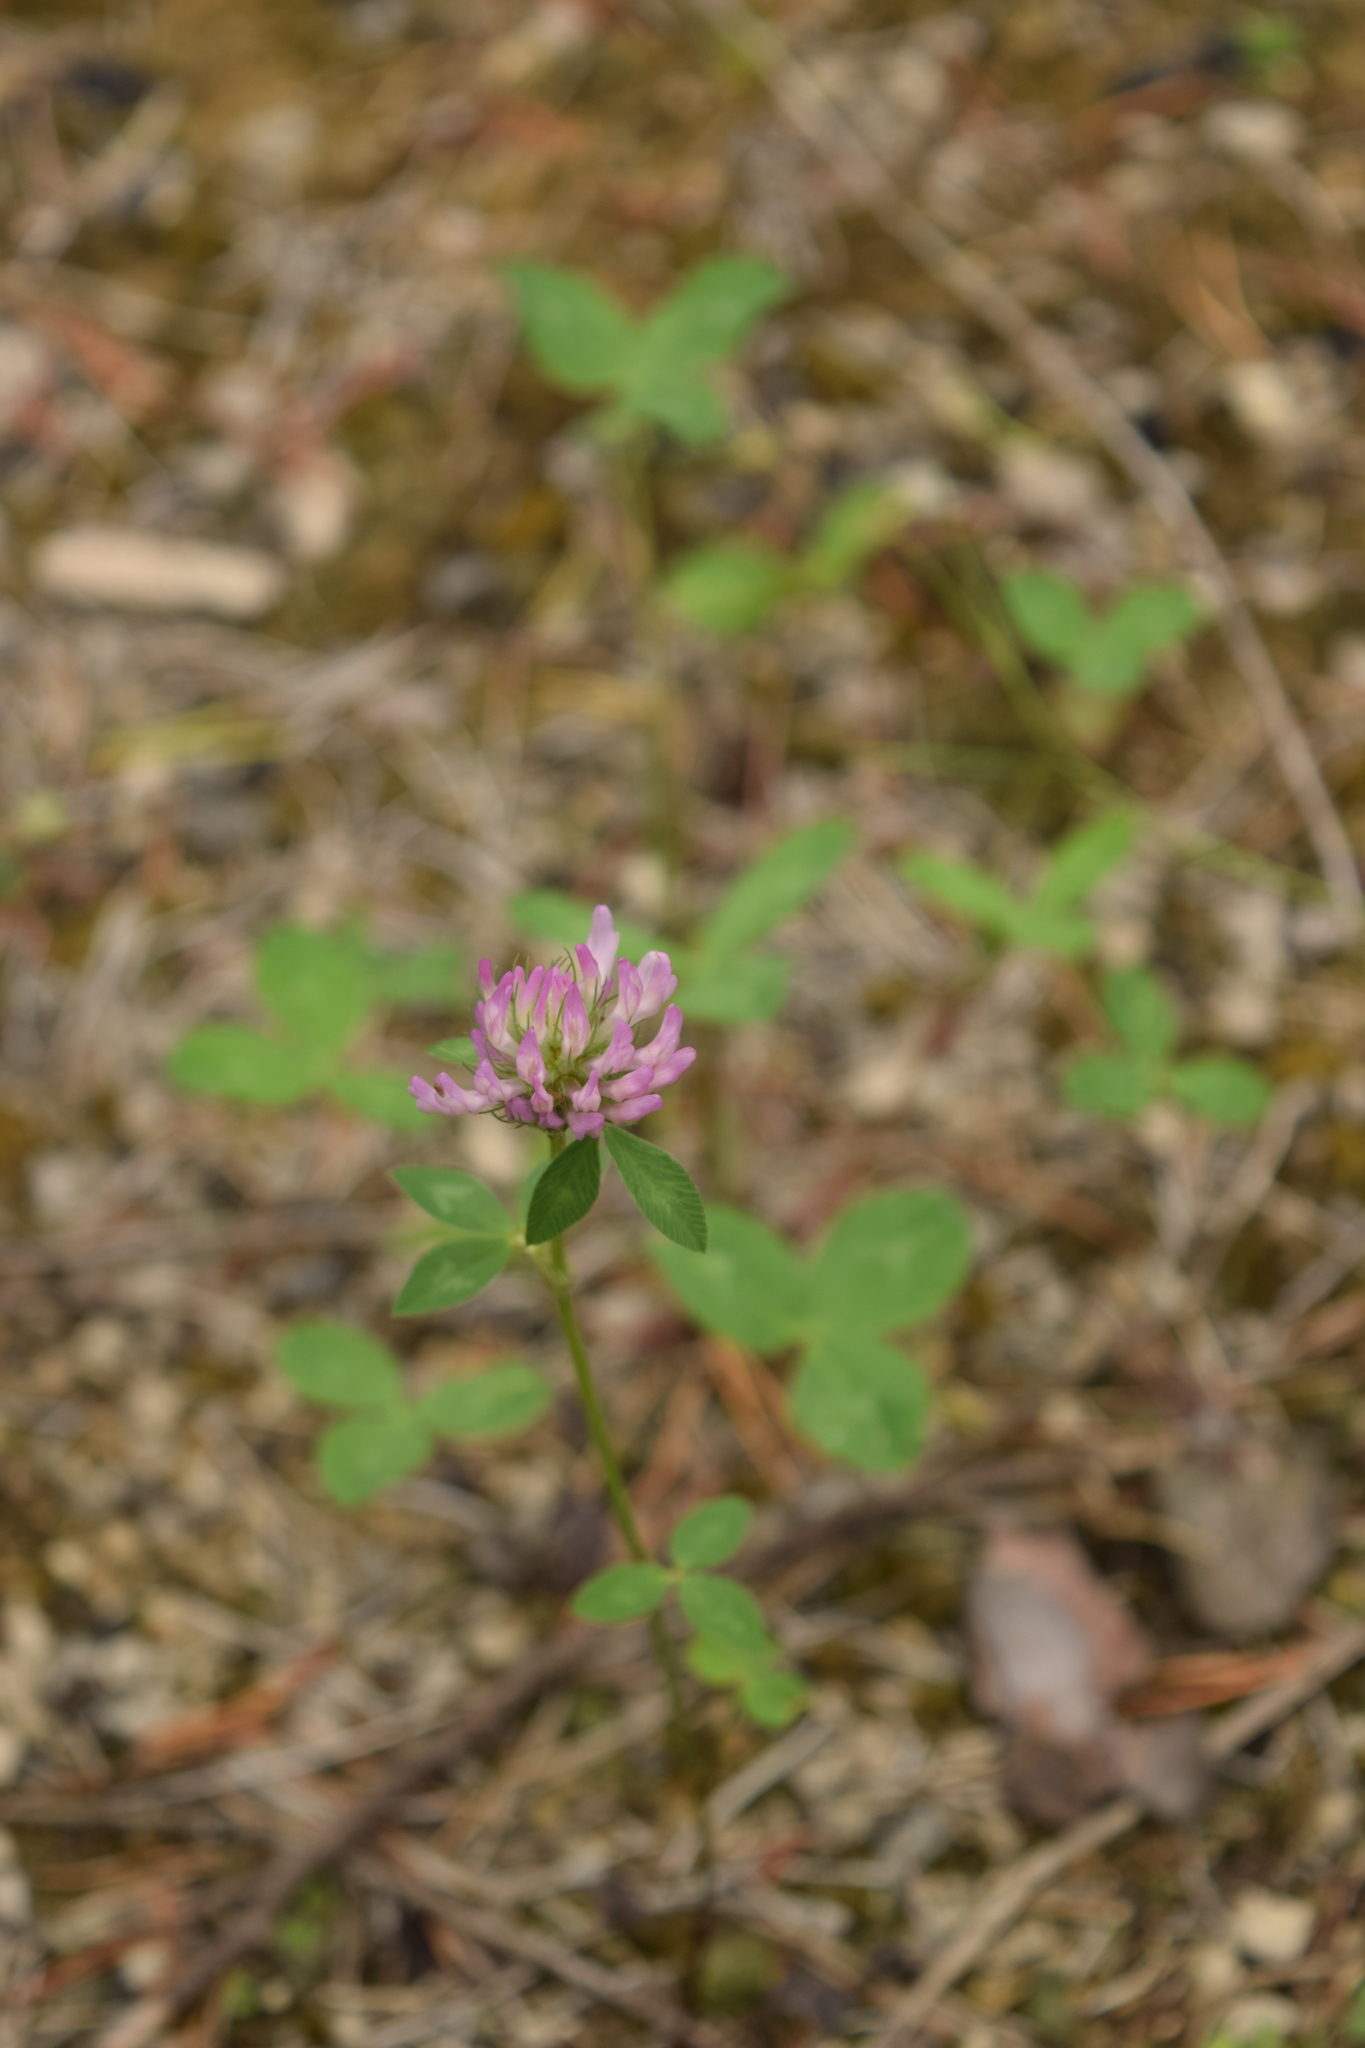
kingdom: Plantae
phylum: Tracheophyta
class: Magnoliopsida
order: Fabales
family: Fabaceae
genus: Trifolium
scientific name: Trifolium pratense
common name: Red clover
